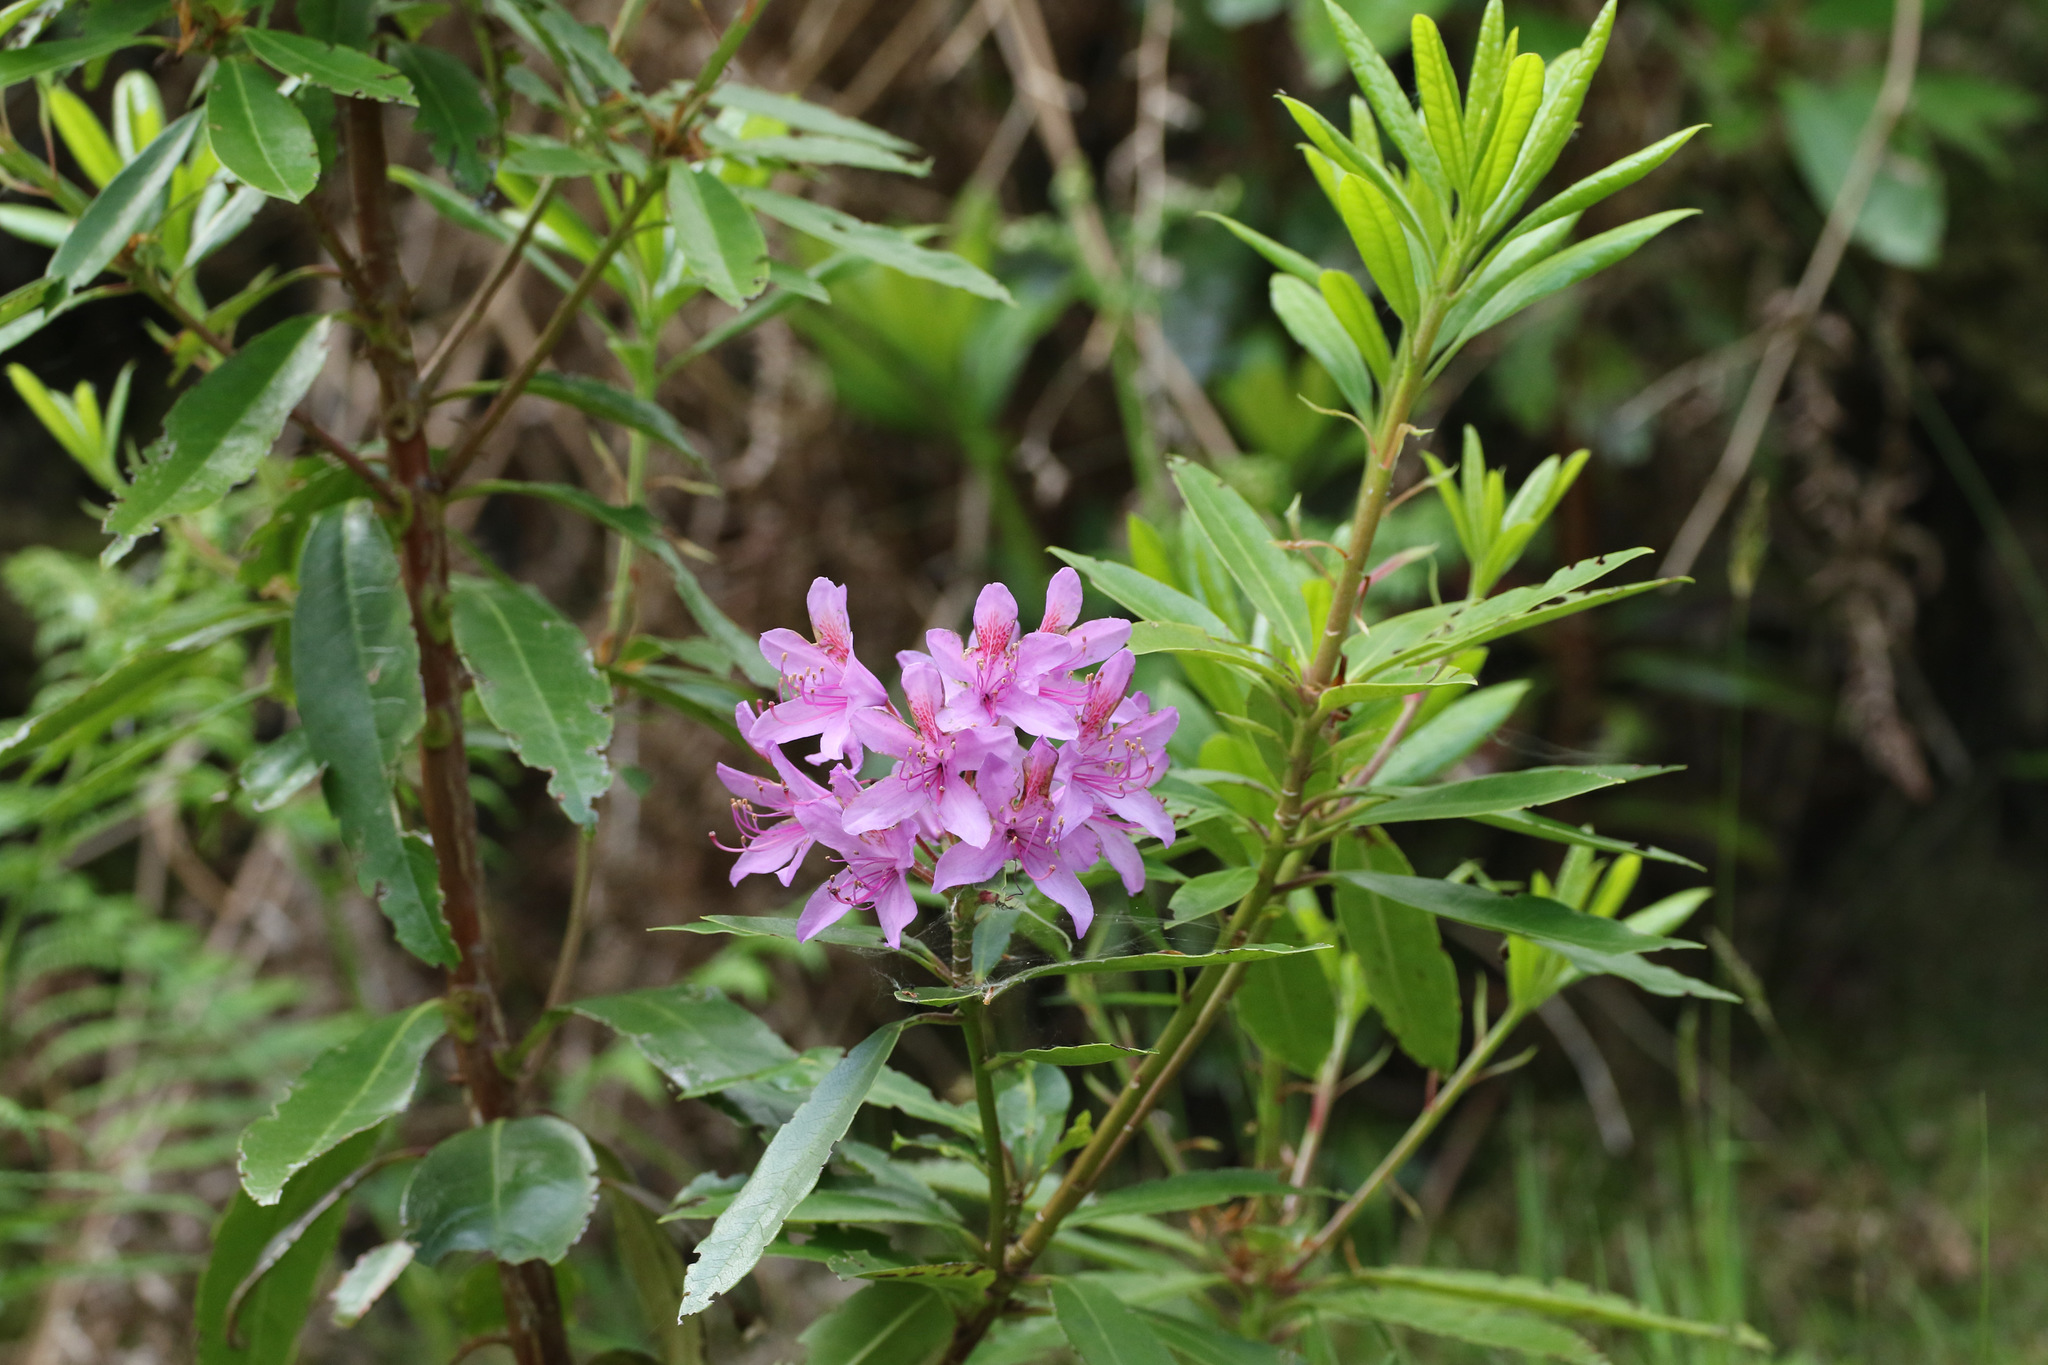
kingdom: Plantae
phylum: Tracheophyta
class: Magnoliopsida
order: Ericales
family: Ericaceae
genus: Rhododendron
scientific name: Rhododendron ponticum
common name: Rhododendron
